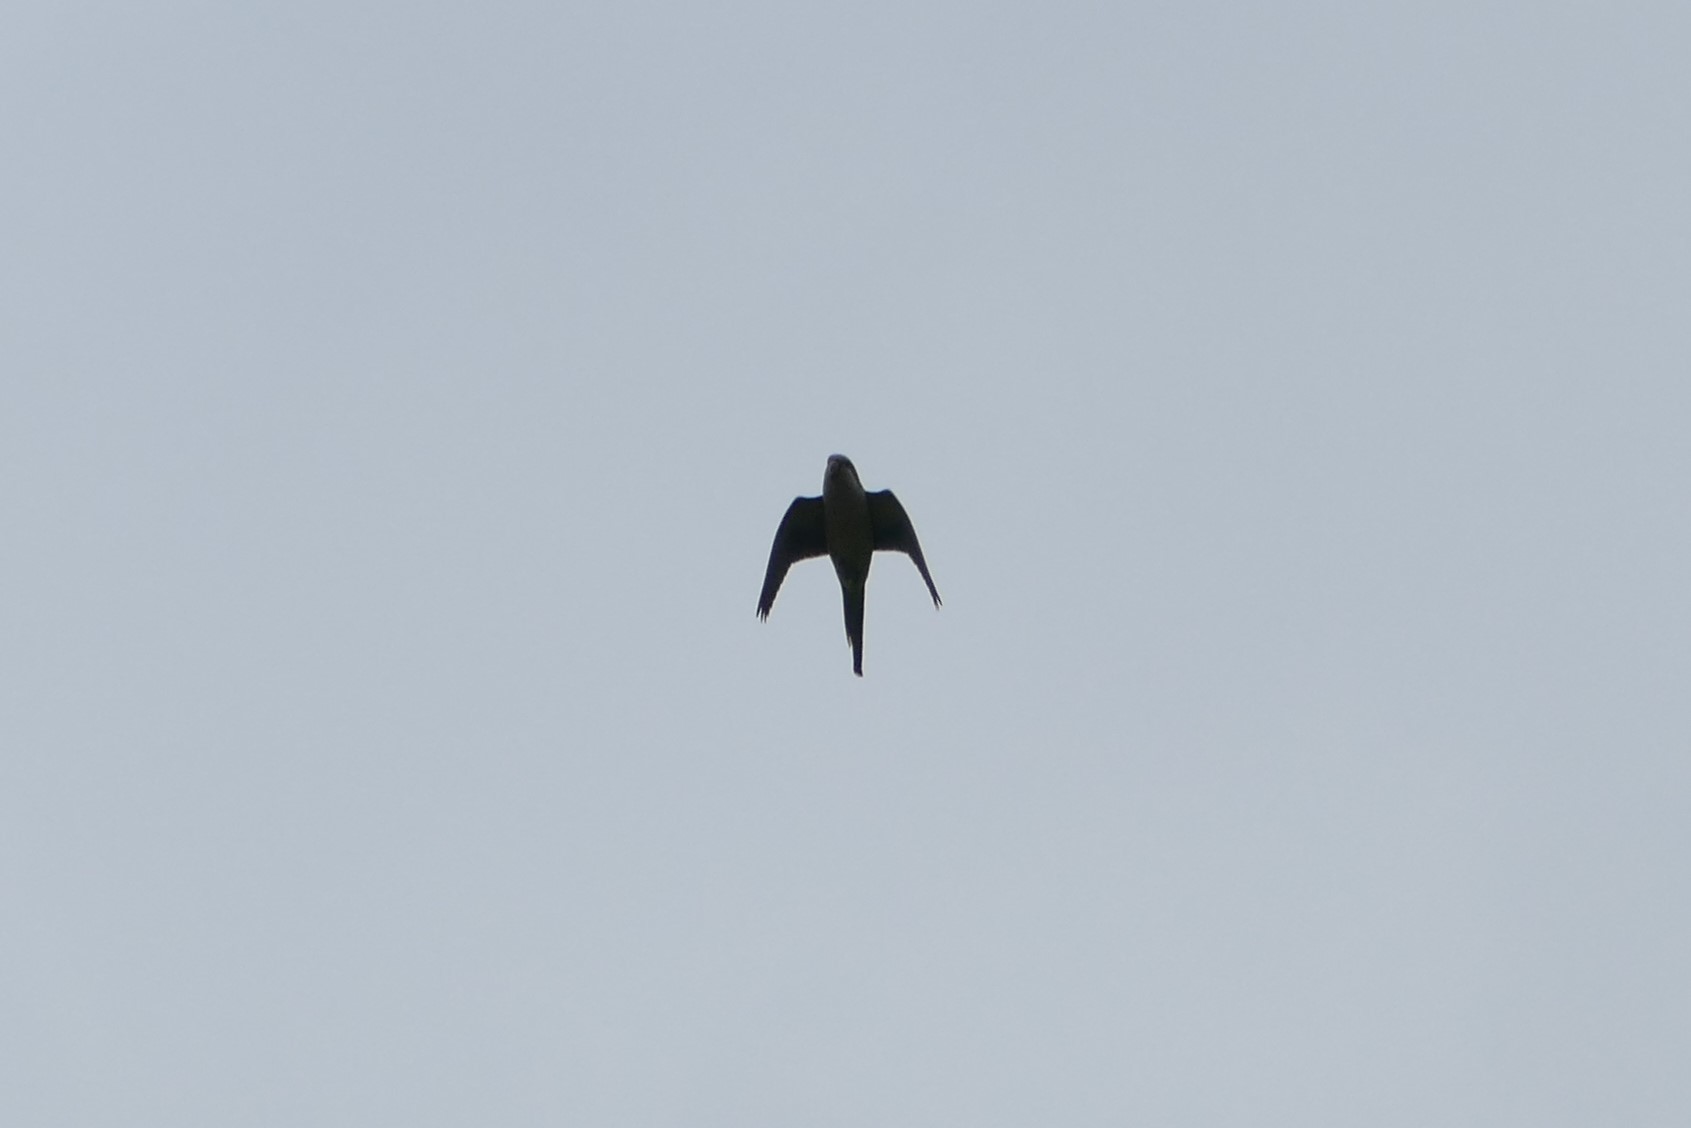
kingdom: Animalia
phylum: Chordata
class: Aves
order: Psittaciformes
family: Psittacidae
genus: Myiopsitta
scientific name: Myiopsitta monachus
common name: Monk parakeet
